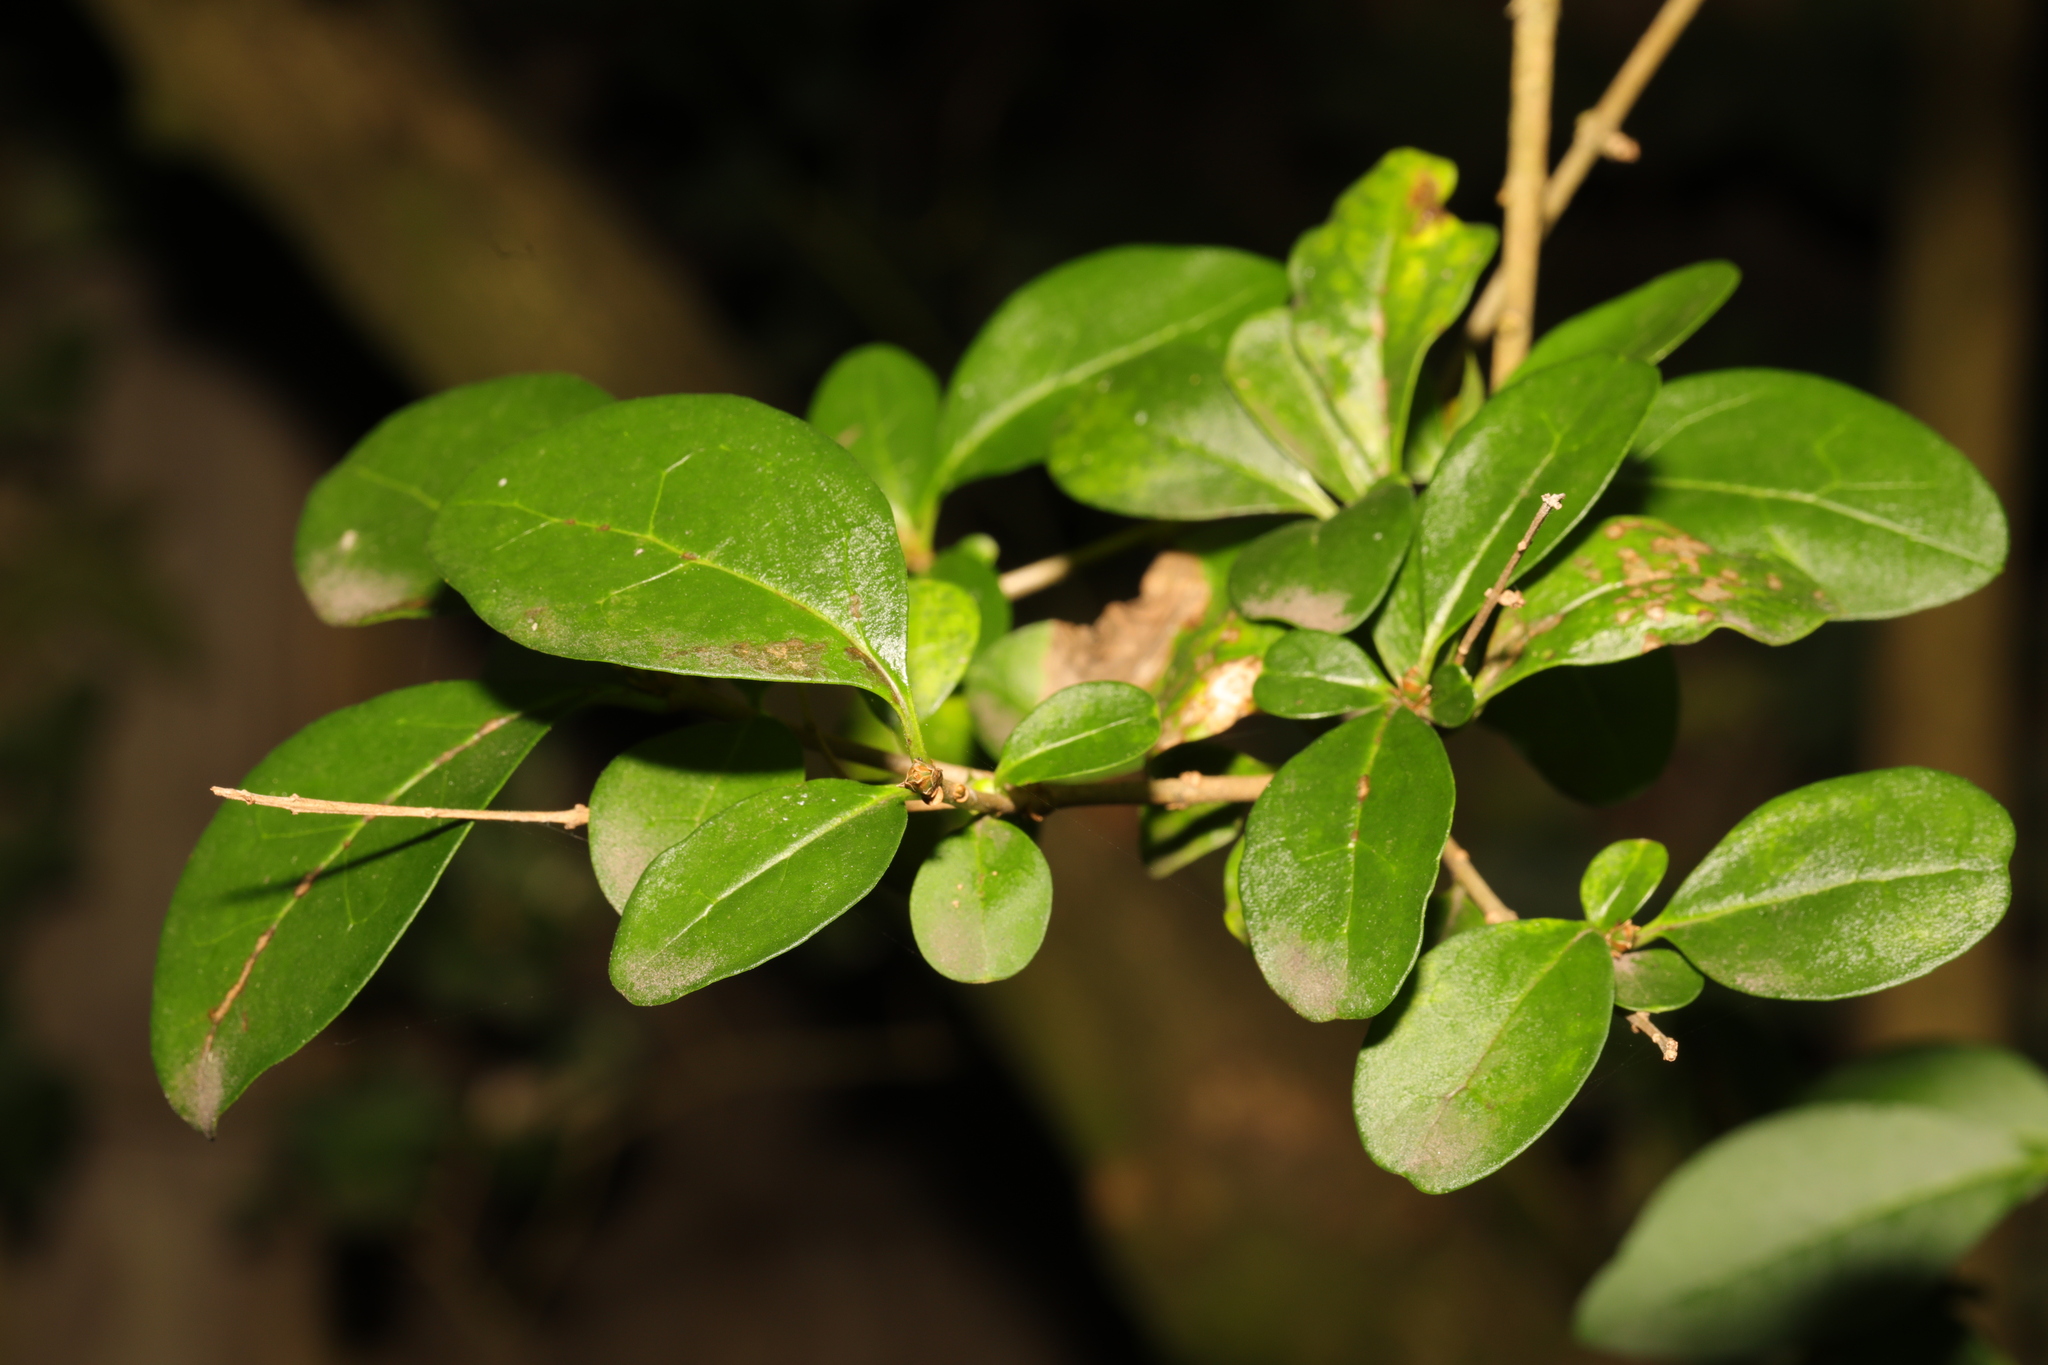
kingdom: Plantae
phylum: Tracheophyta
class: Magnoliopsida
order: Lamiales
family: Oleaceae
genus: Ligustrum
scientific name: Ligustrum ovalifolium
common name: California privet
